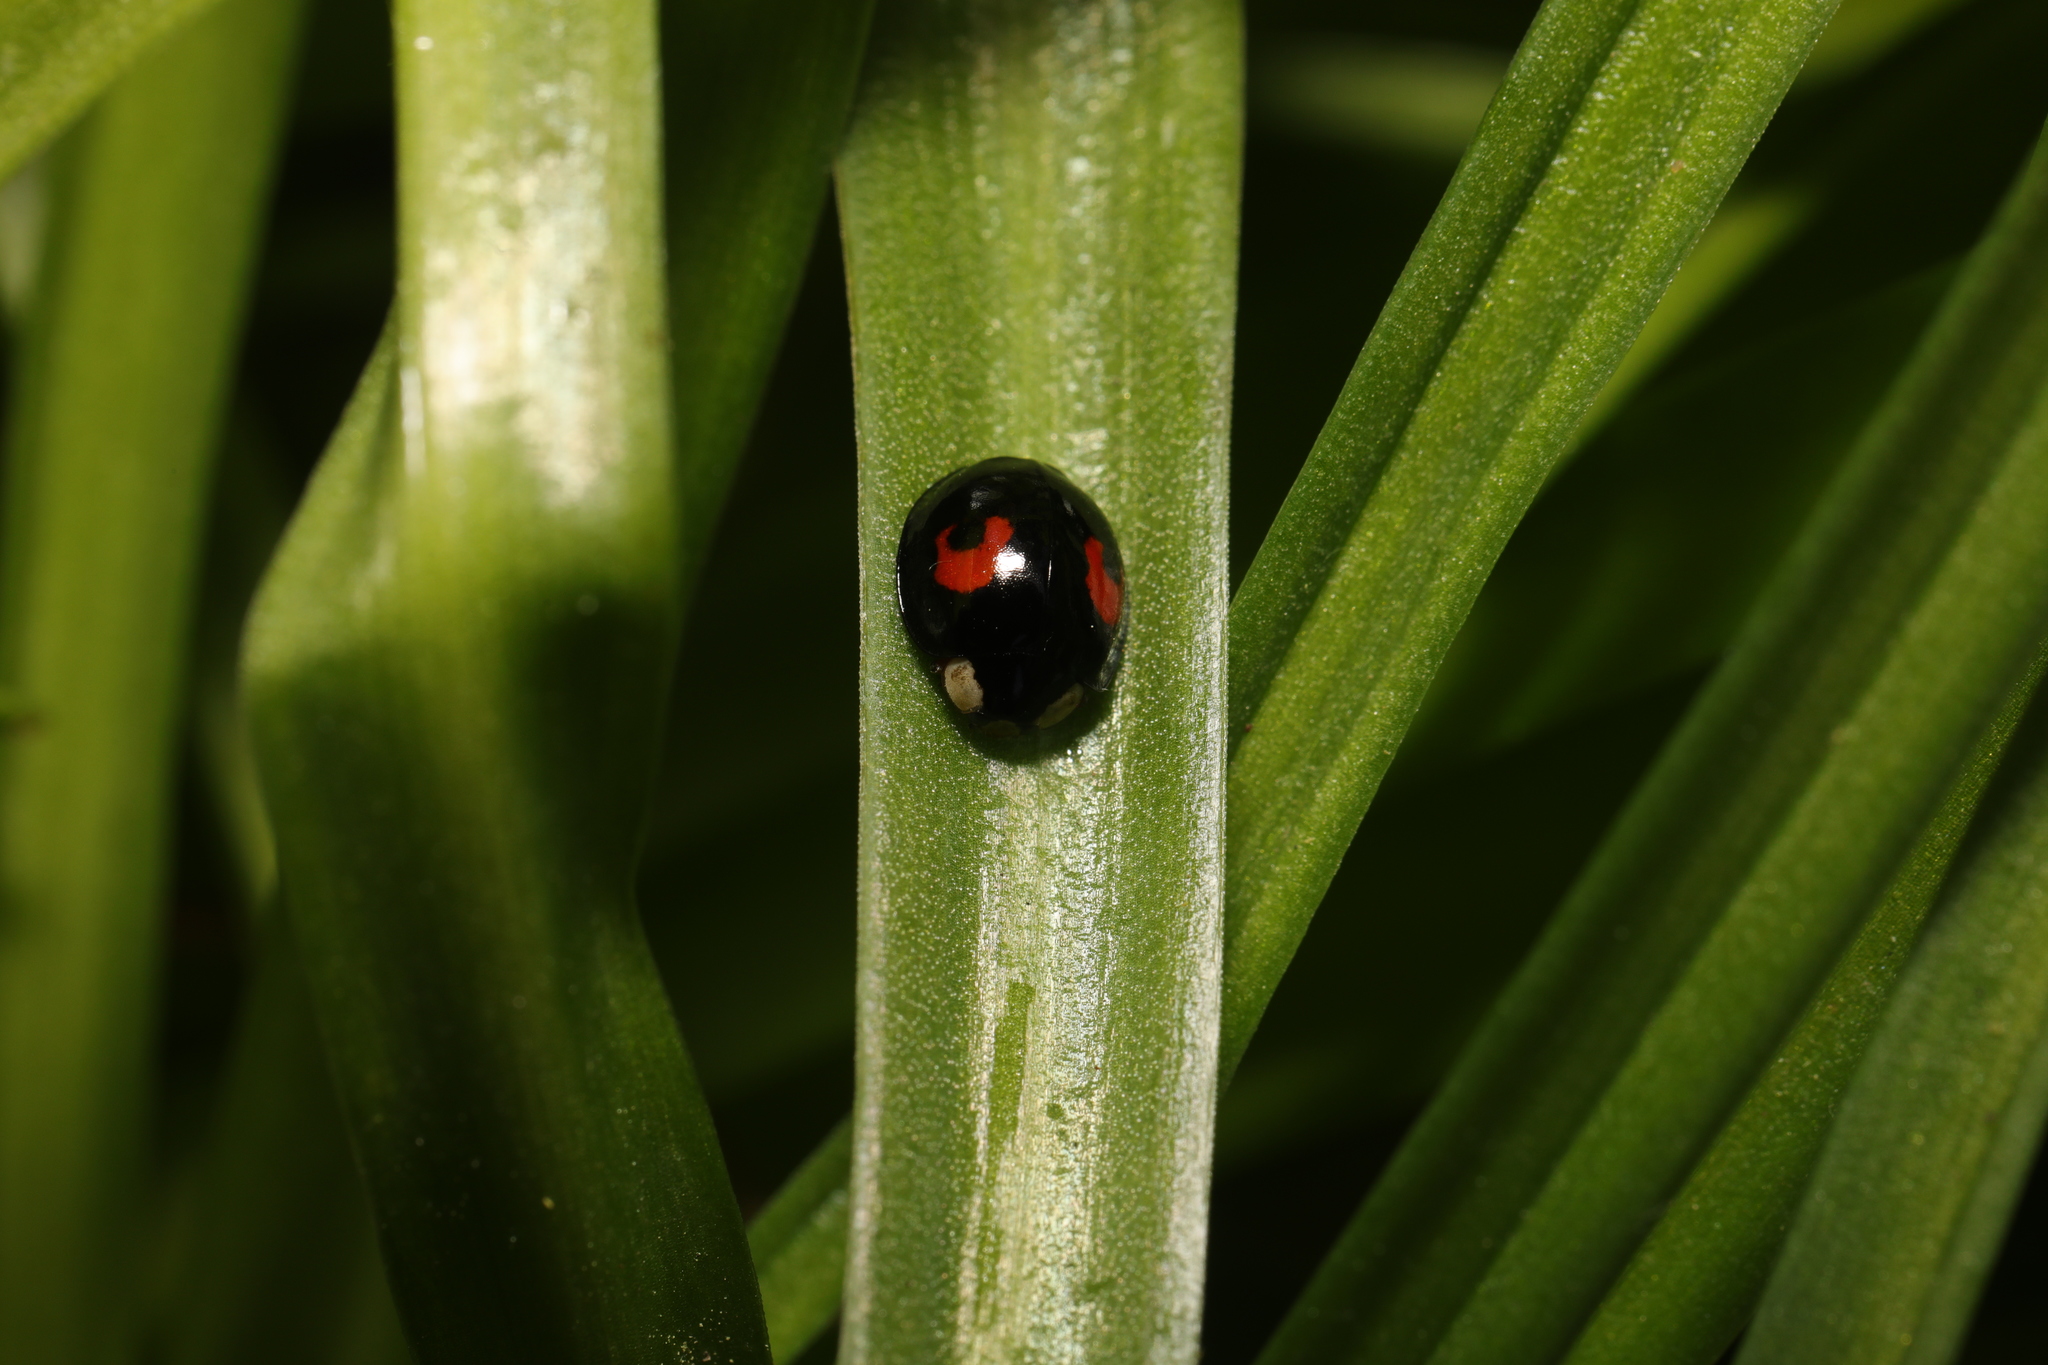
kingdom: Animalia
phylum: Arthropoda
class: Insecta
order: Coleoptera
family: Coccinellidae
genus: Harmonia
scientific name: Harmonia axyridis
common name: Harlequin ladybird
